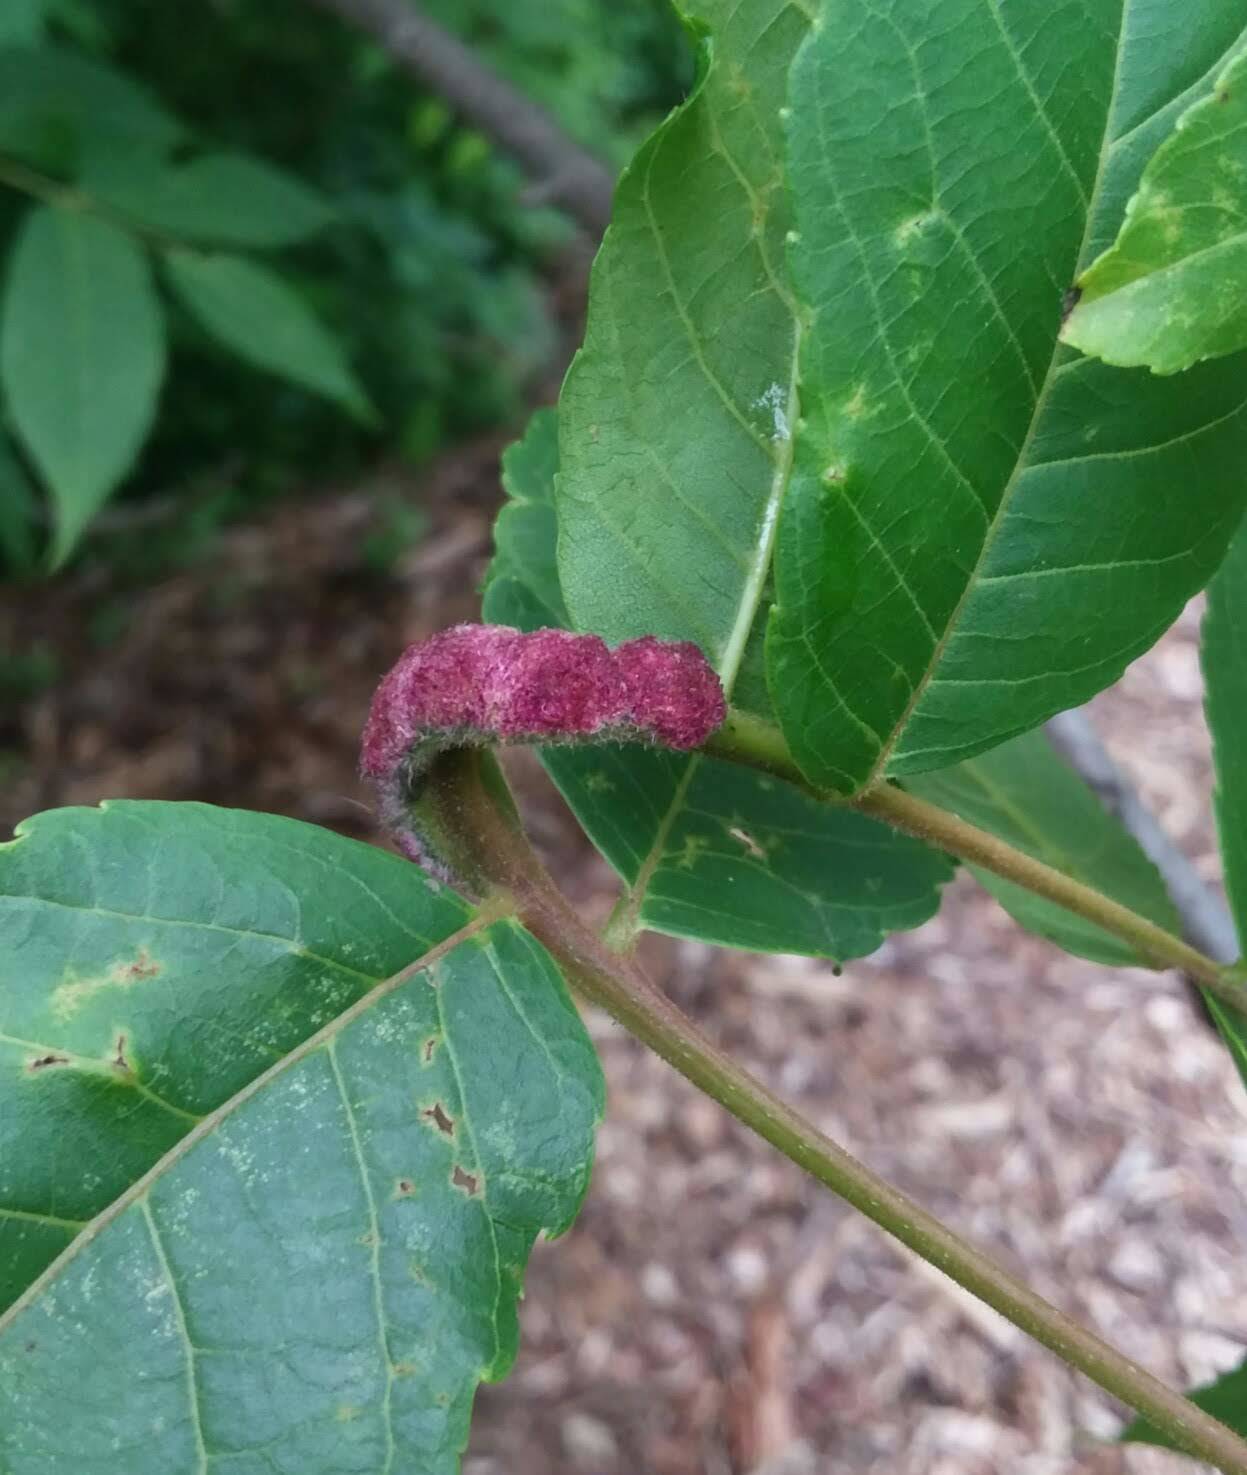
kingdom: Animalia
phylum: Arthropoda
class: Arachnida
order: Trombidiformes
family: Eriophyidae
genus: Aceria
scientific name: Aceria
